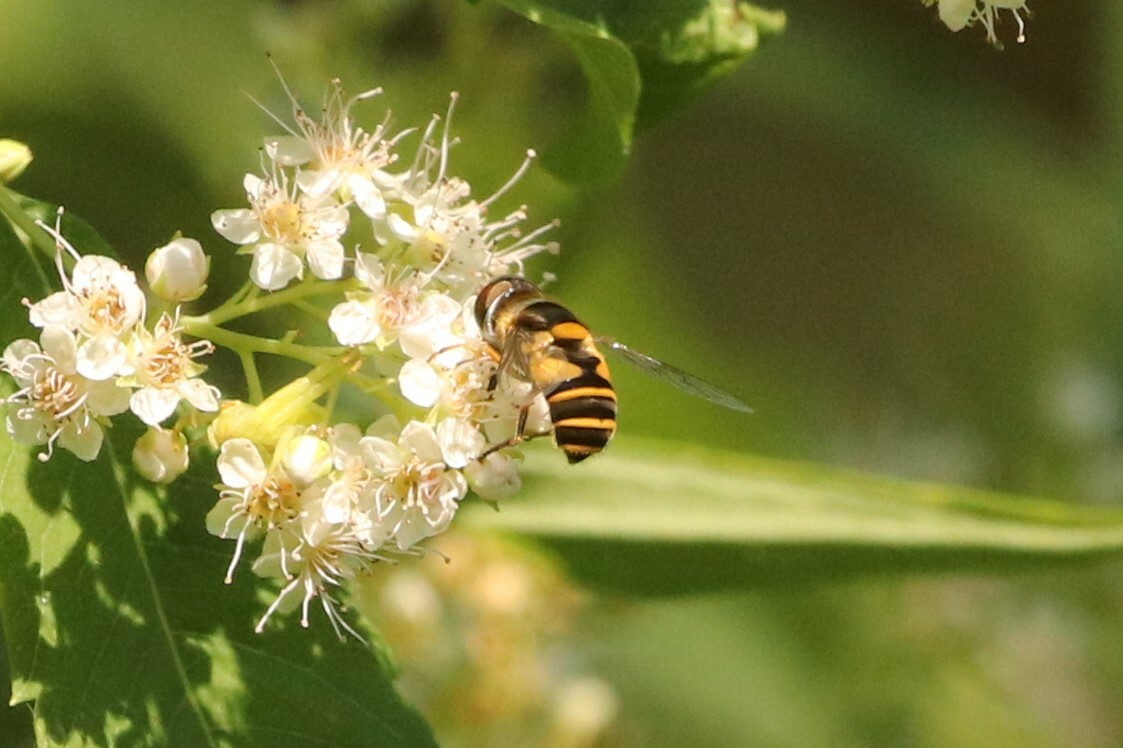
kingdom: Animalia
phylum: Arthropoda
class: Insecta
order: Diptera
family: Syrphidae
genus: Eristalis
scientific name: Eristalis transversa
